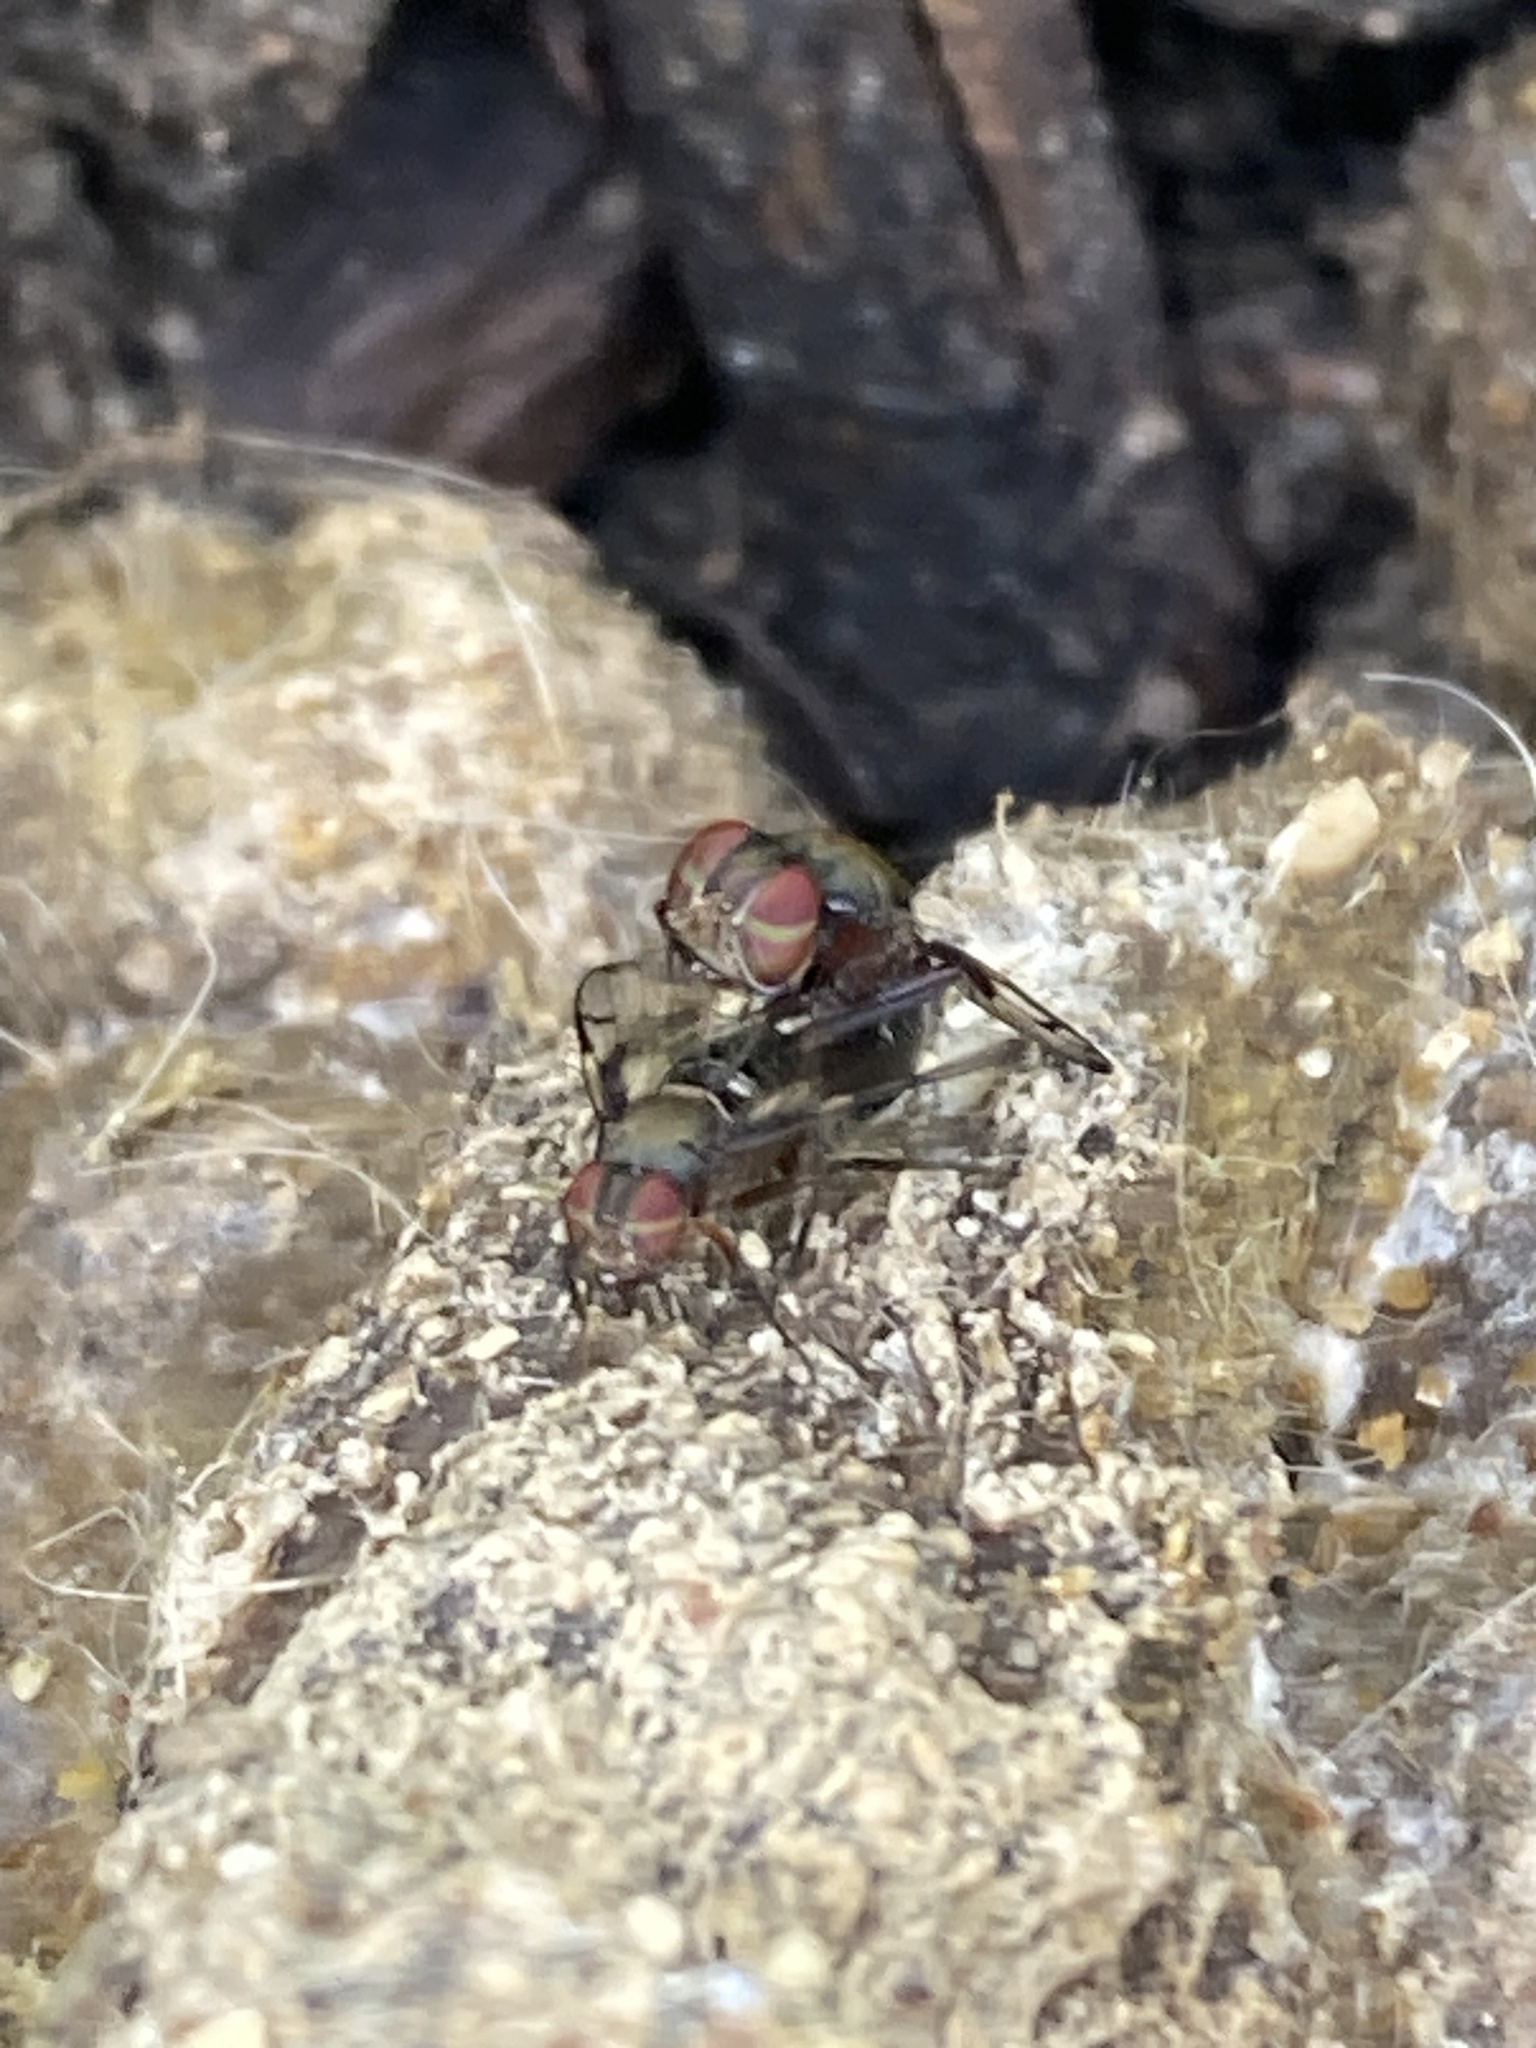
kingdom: Animalia
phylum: Arthropoda
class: Insecta
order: Diptera
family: Platystomatidae
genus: Pogonortalis
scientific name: Pogonortalis doclea
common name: Boatman fly
